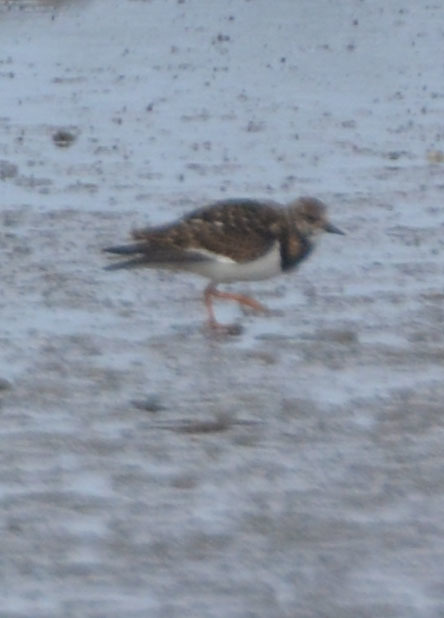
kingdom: Animalia
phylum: Chordata
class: Aves
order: Charadriiformes
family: Scolopacidae
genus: Arenaria
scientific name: Arenaria interpres
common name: Ruddy turnstone
